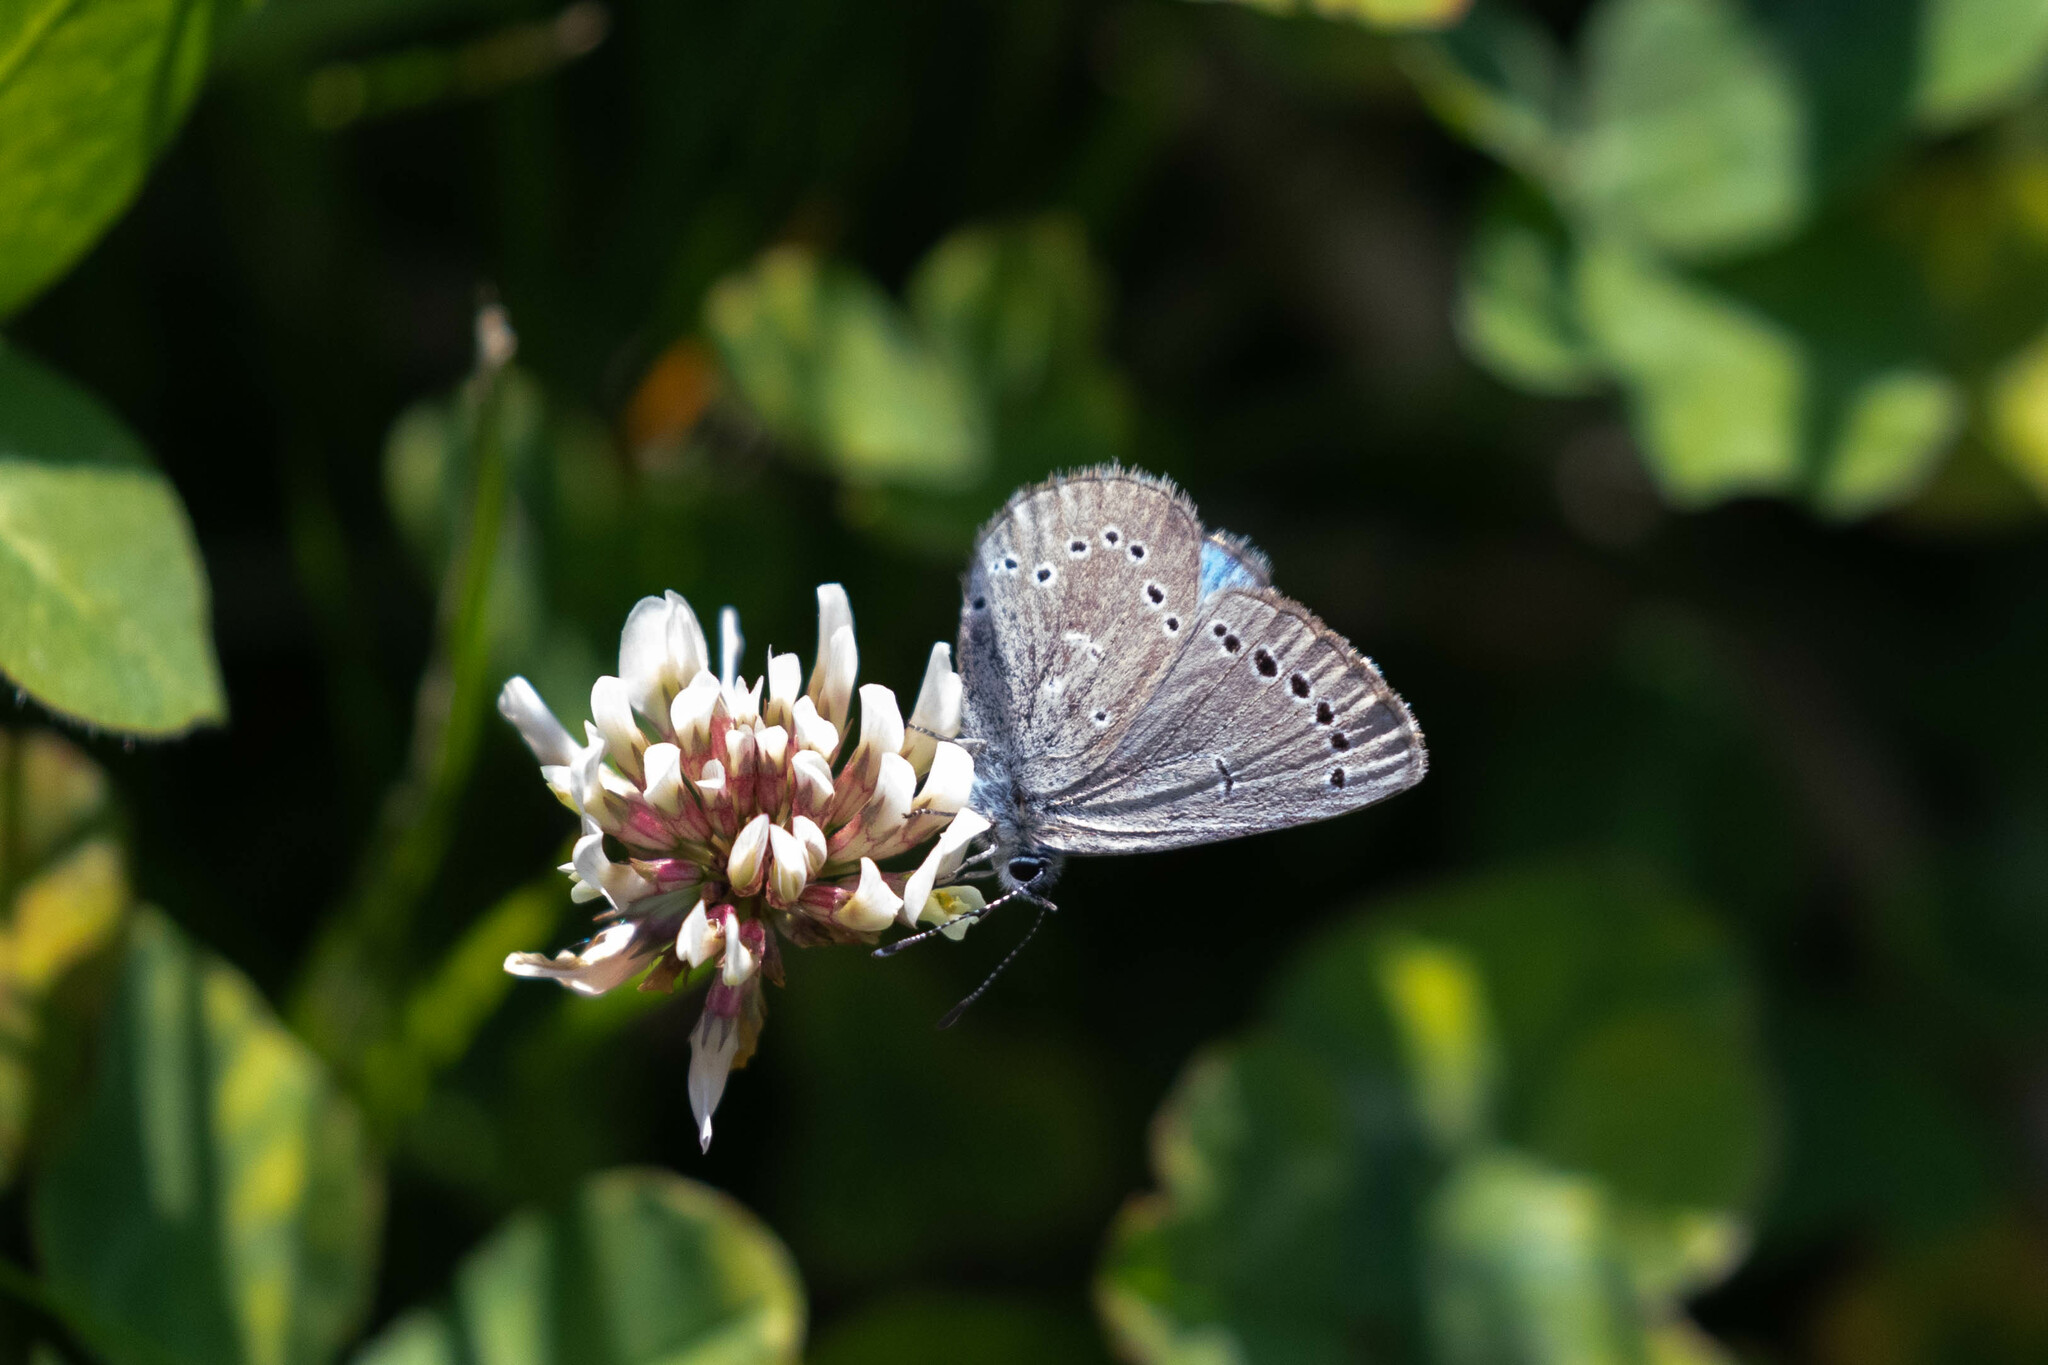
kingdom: Animalia
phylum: Arthropoda
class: Insecta
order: Lepidoptera
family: Lycaenidae
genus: Glaucopsyche
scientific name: Glaucopsyche lygdamus
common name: Silvery blue
